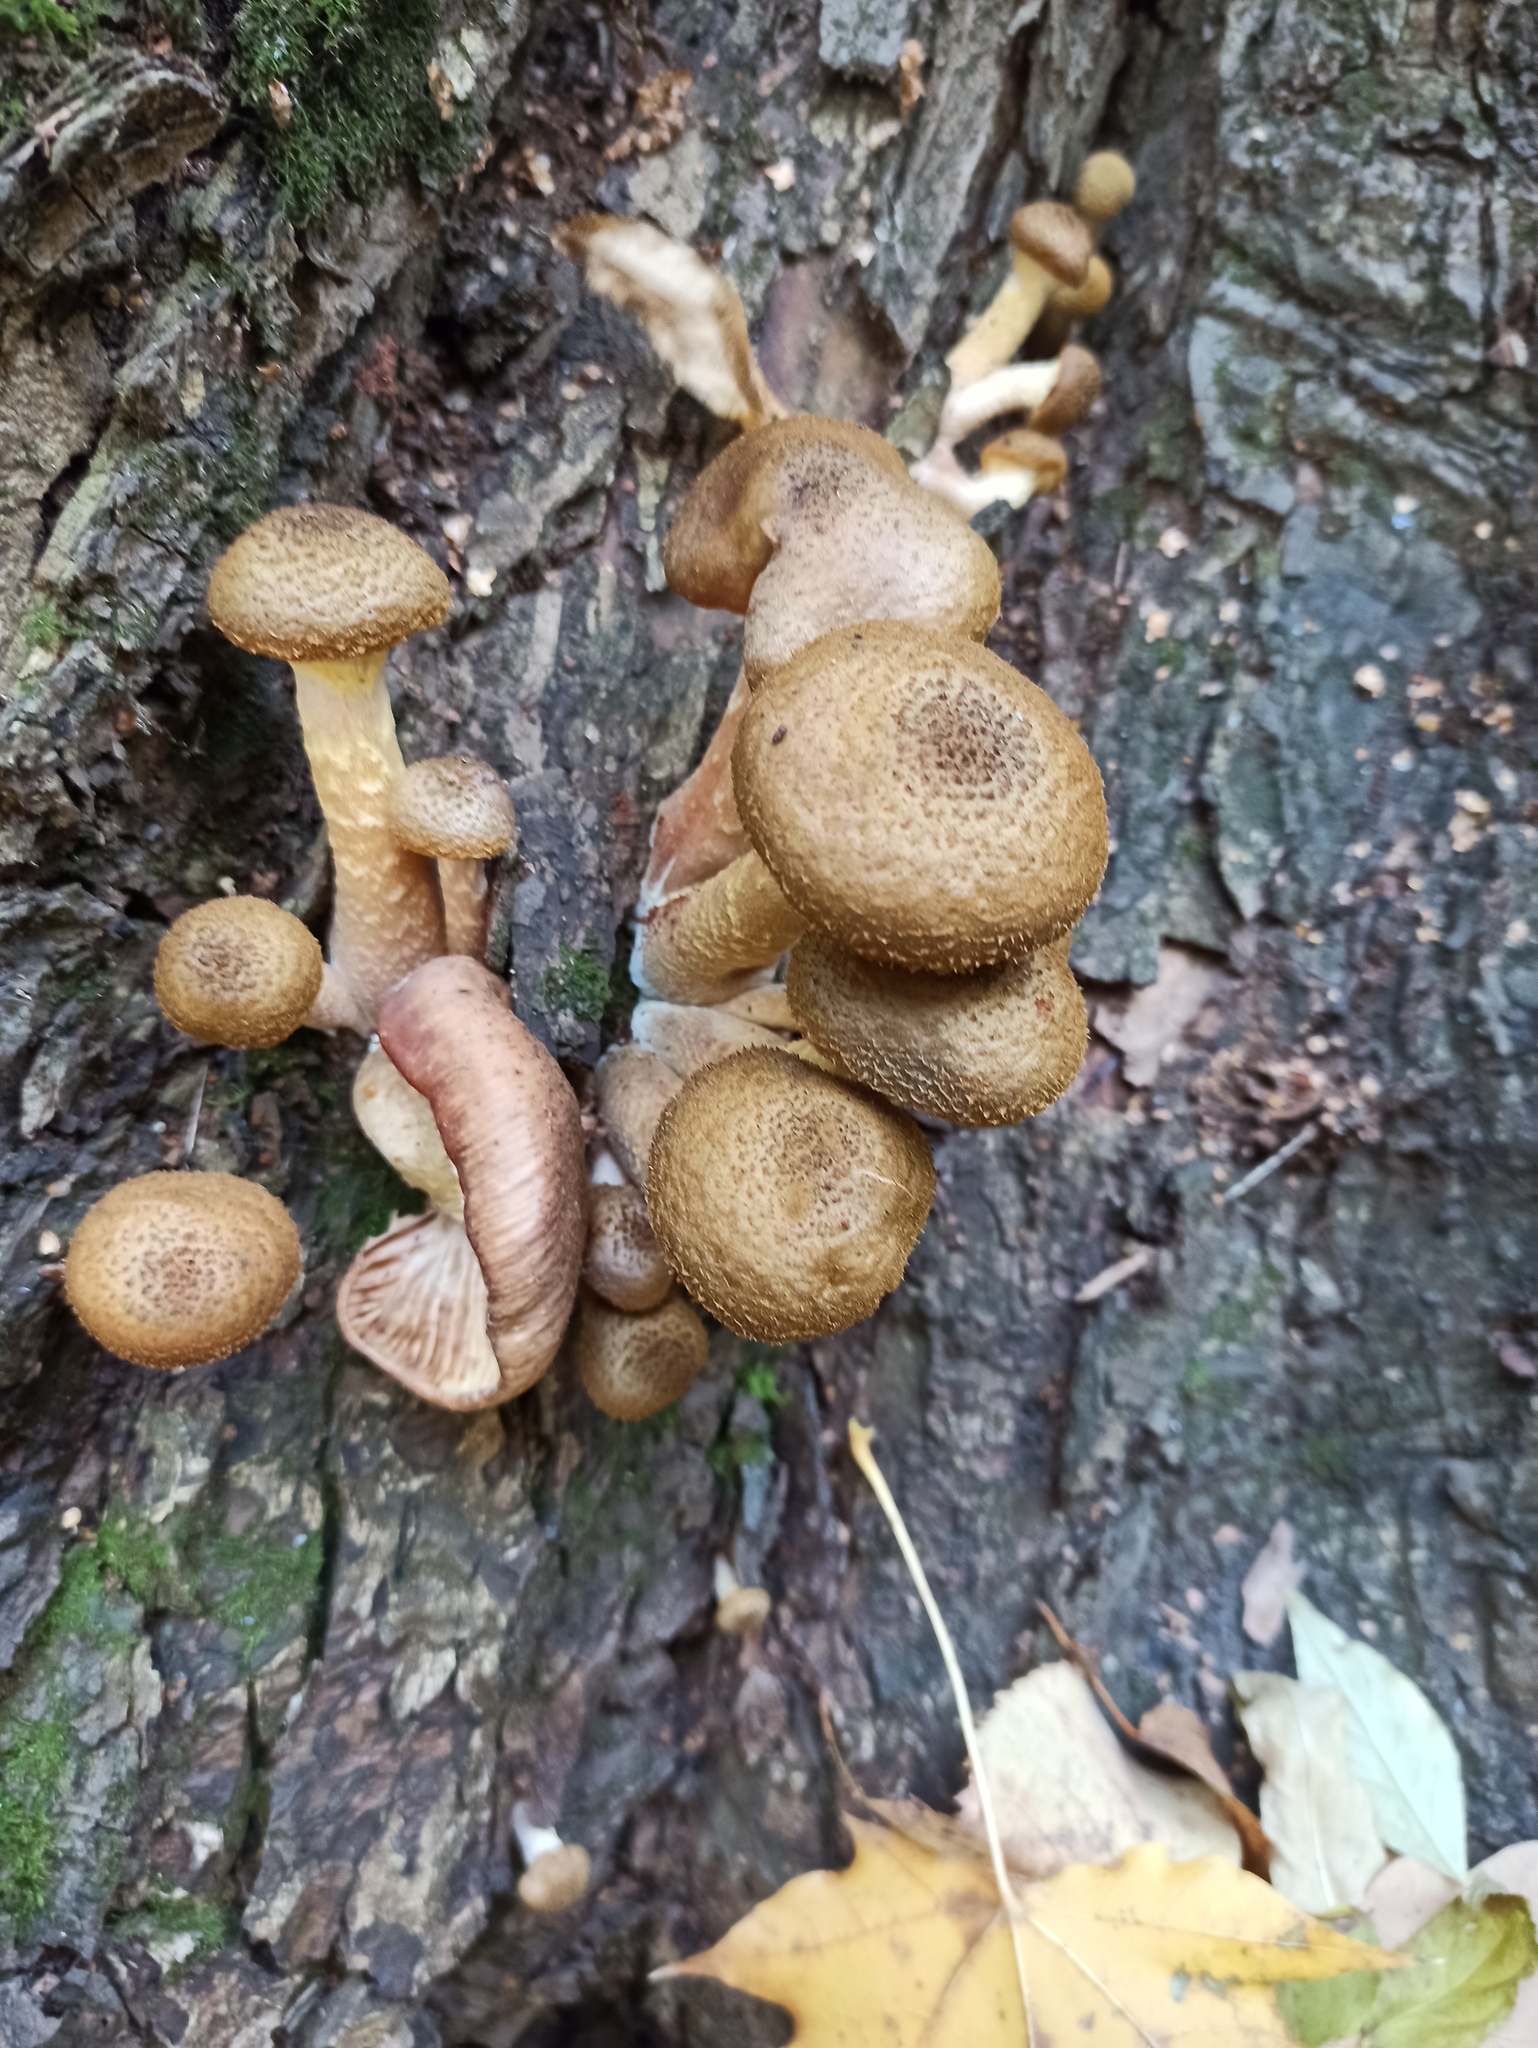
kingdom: Fungi
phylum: Basidiomycota
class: Agaricomycetes
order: Agaricales
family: Physalacriaceae
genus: Armillaria
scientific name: Armillaria gallica
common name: Bulbous honey fungus
